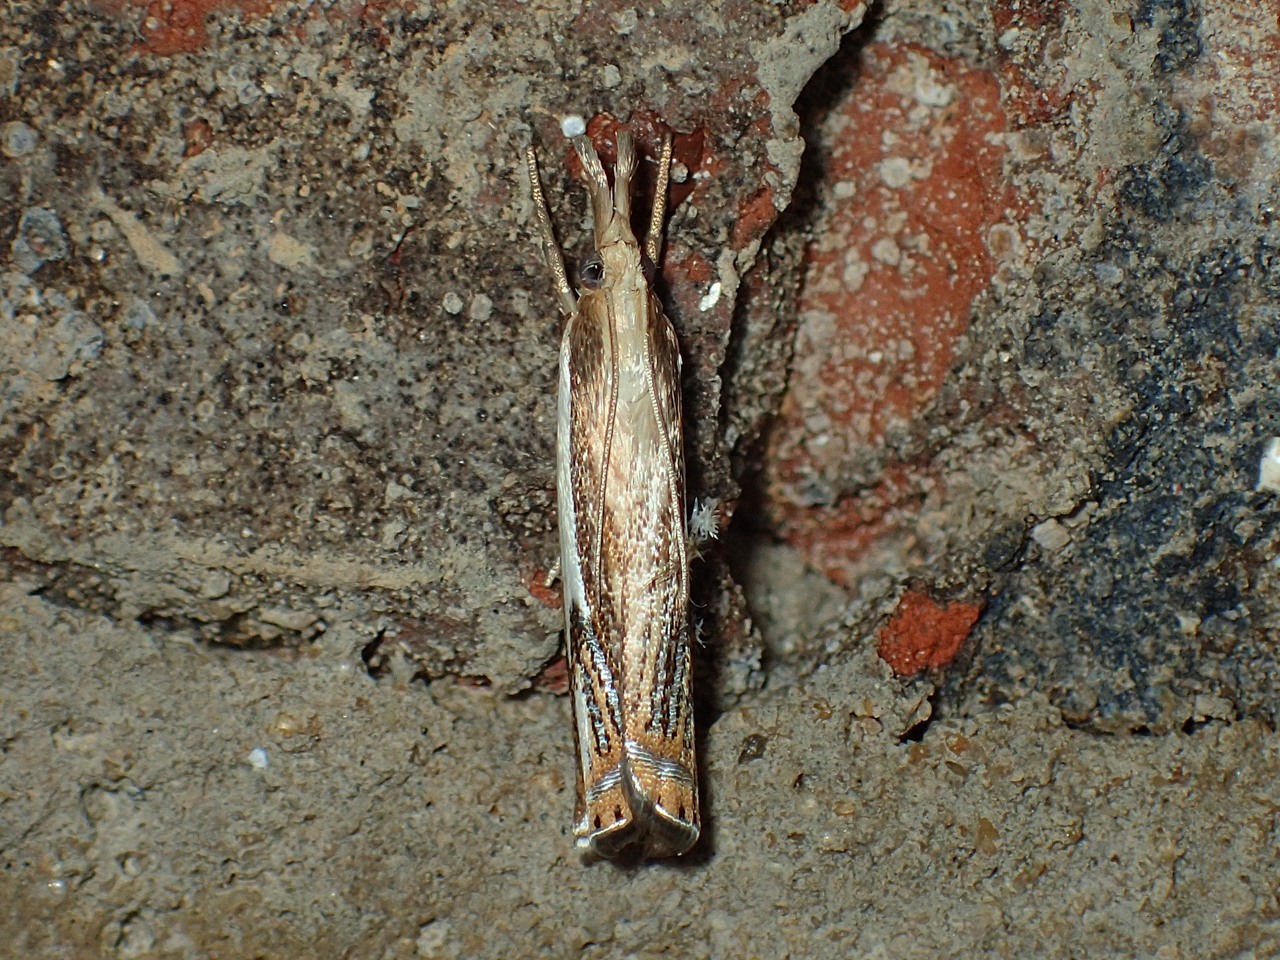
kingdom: Animalia
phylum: Arthropoda
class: Insecta
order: Lepidoptera
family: Crambidae
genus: Crambus
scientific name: Crambus agitatellus
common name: Double-banded grass-veneer
